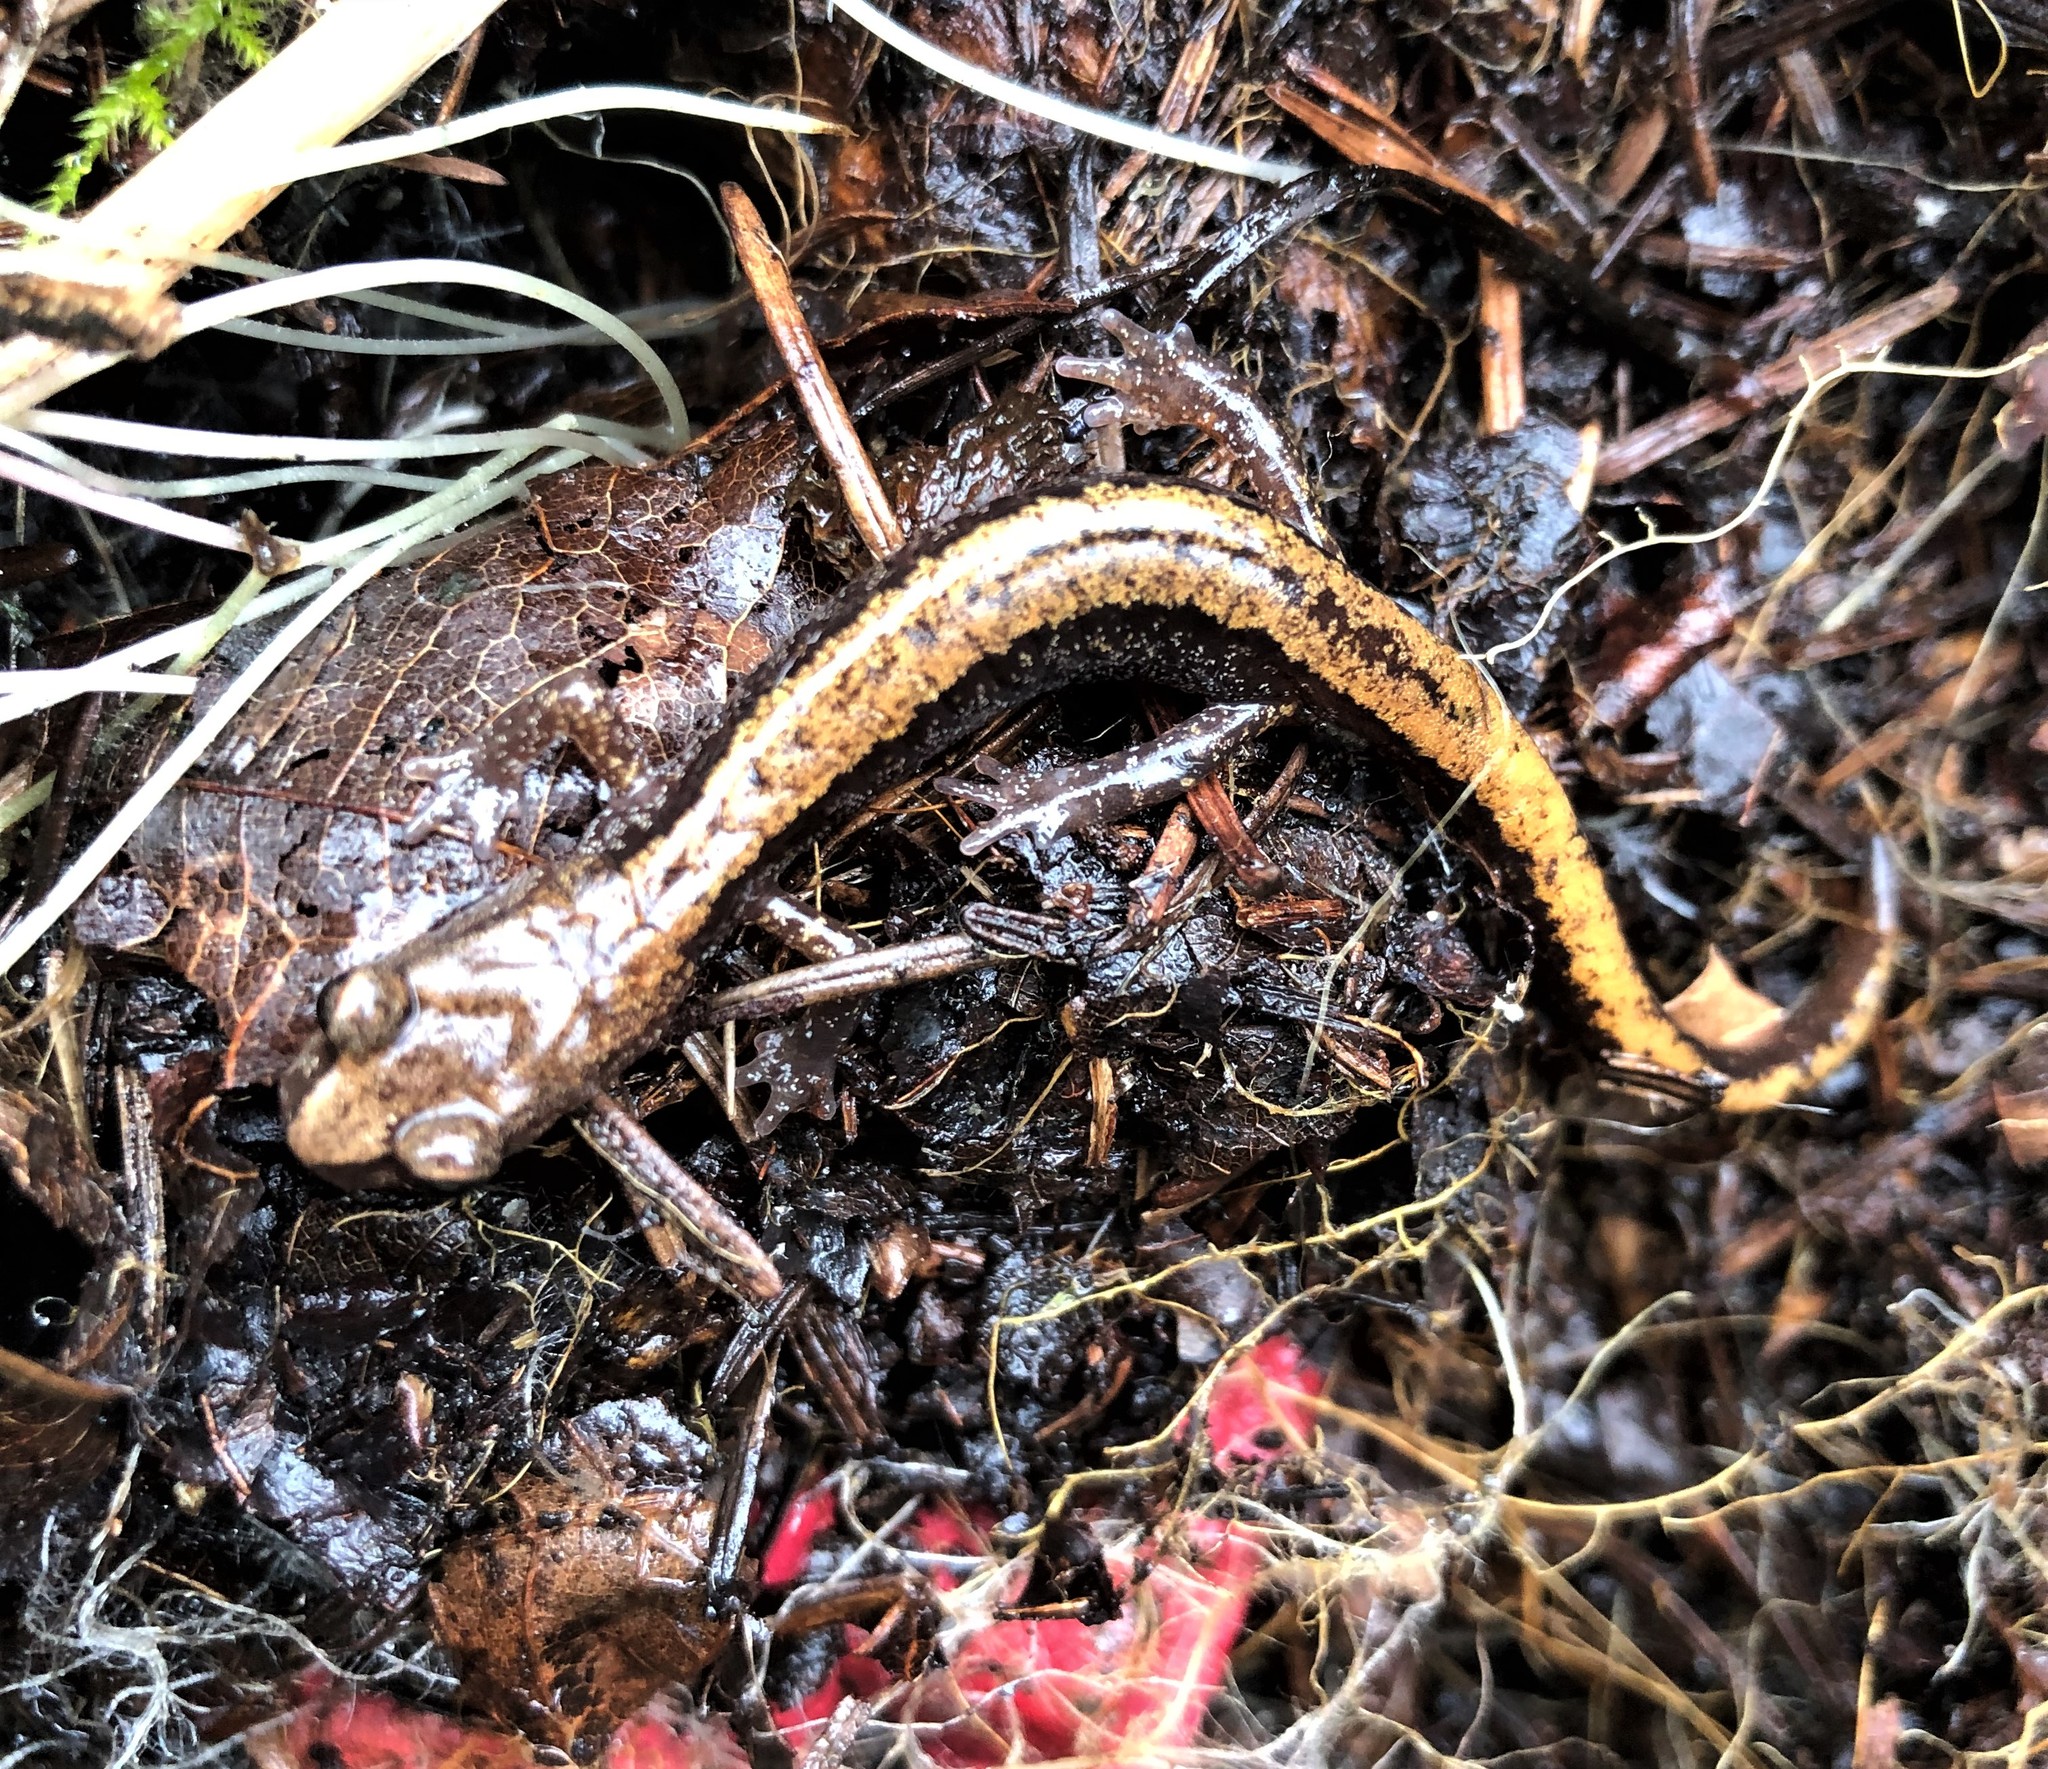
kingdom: Animalia
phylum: Chordata
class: Amphibia
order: Caudata
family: Plethodontidae
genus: Plethodon
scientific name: Plethodon larselli
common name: Larch mountain salamander
